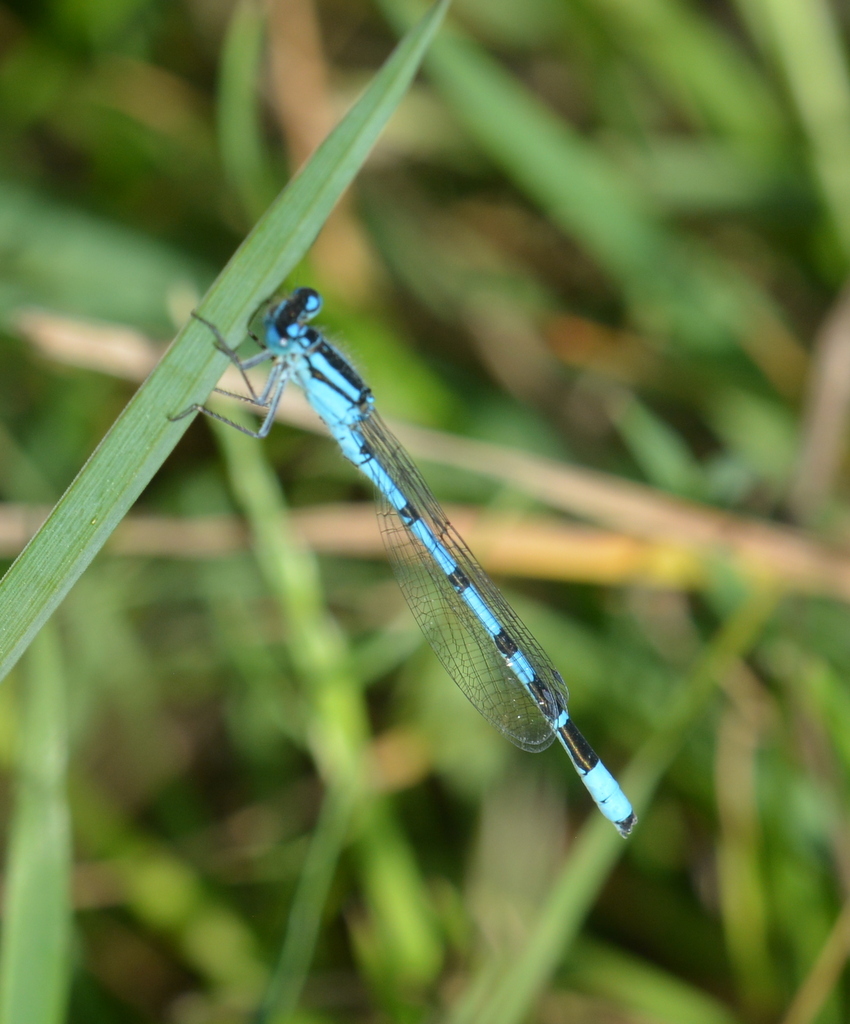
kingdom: Animalia
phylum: Arthropoda
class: Insecta
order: Odonata
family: Coenagrionidae
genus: Enallagma
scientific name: Enallagma cyathigerum
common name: Common blue damselfly
